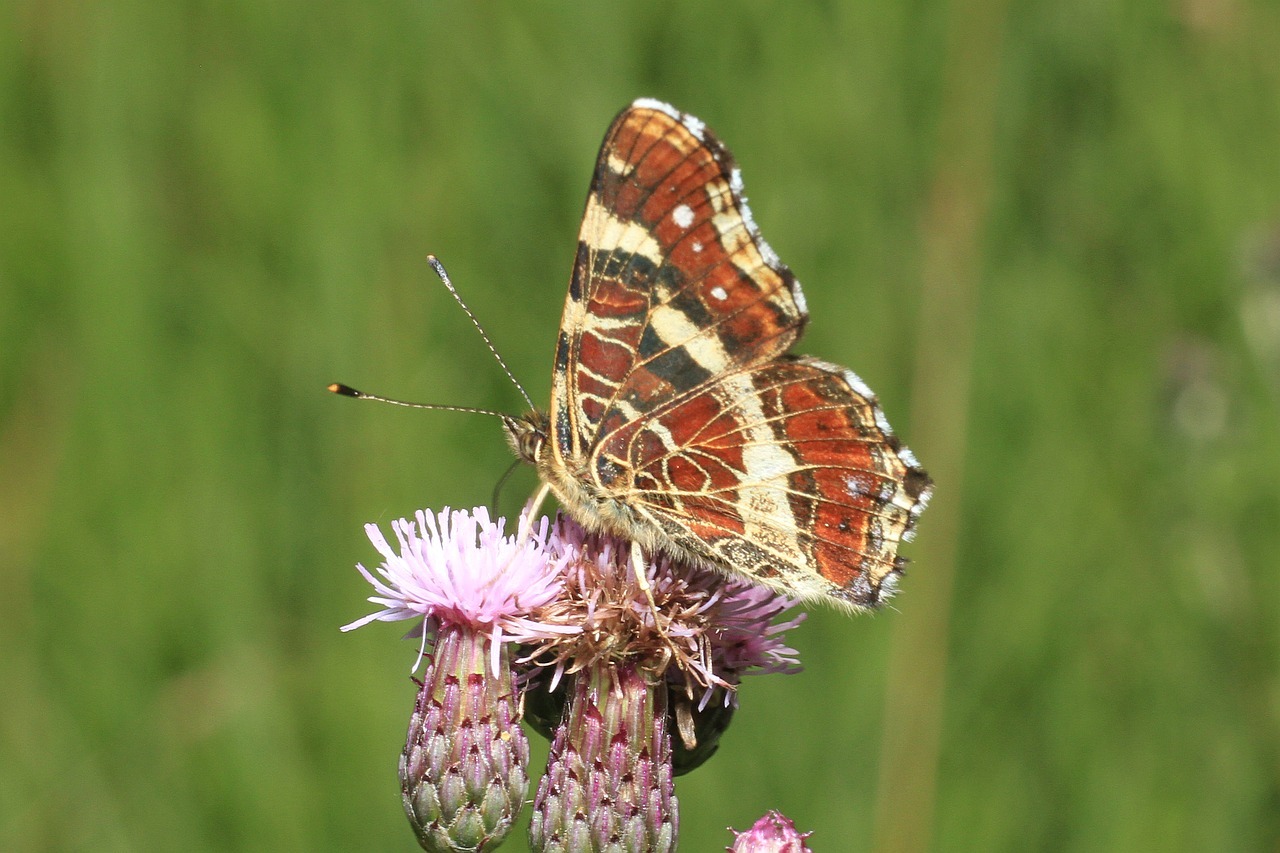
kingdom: Animalia
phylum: Arthropoda
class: Insecta
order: Lepidoptera
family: Nymphalidae
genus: Araschnia
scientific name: Araschnia levana
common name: Map butterfly
